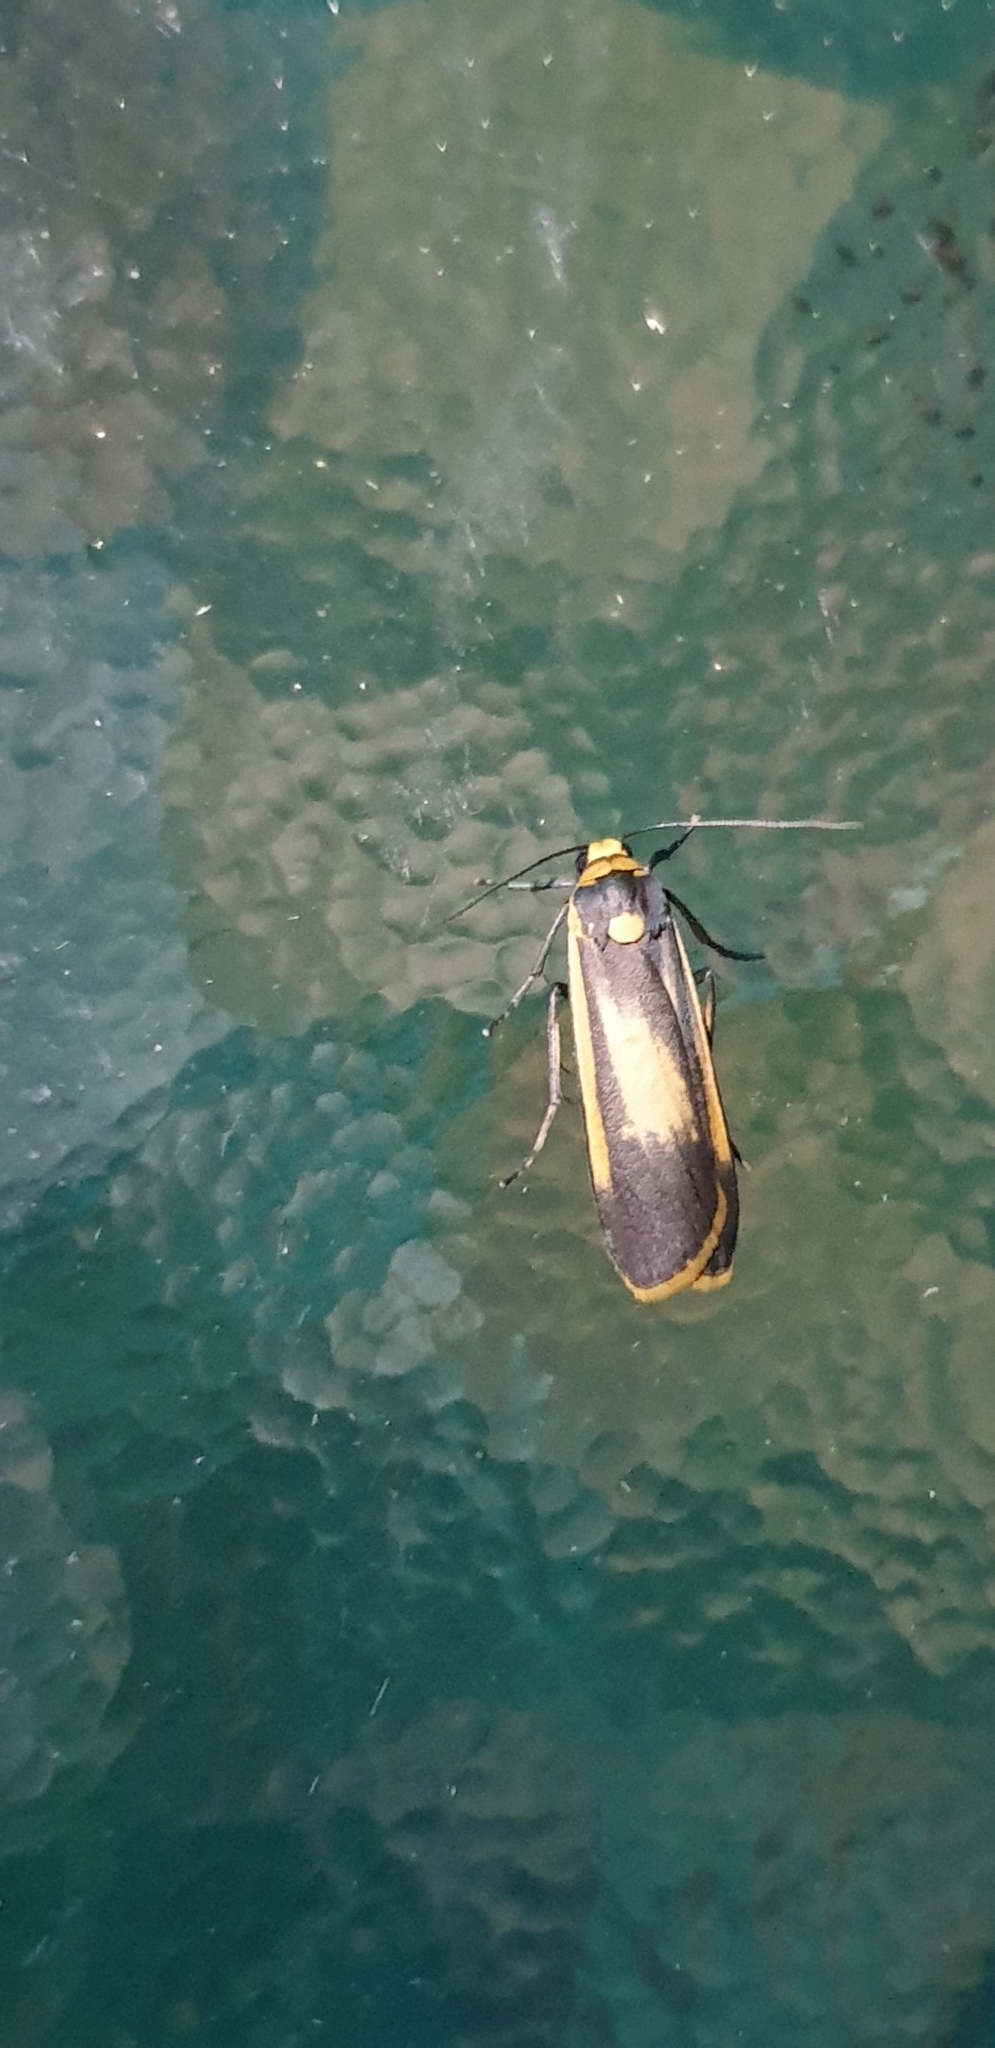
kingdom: Animalia
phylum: Arthropoda
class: Insecta
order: Lepidoptera
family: Erebidae
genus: Brunia
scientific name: Brunia replana
